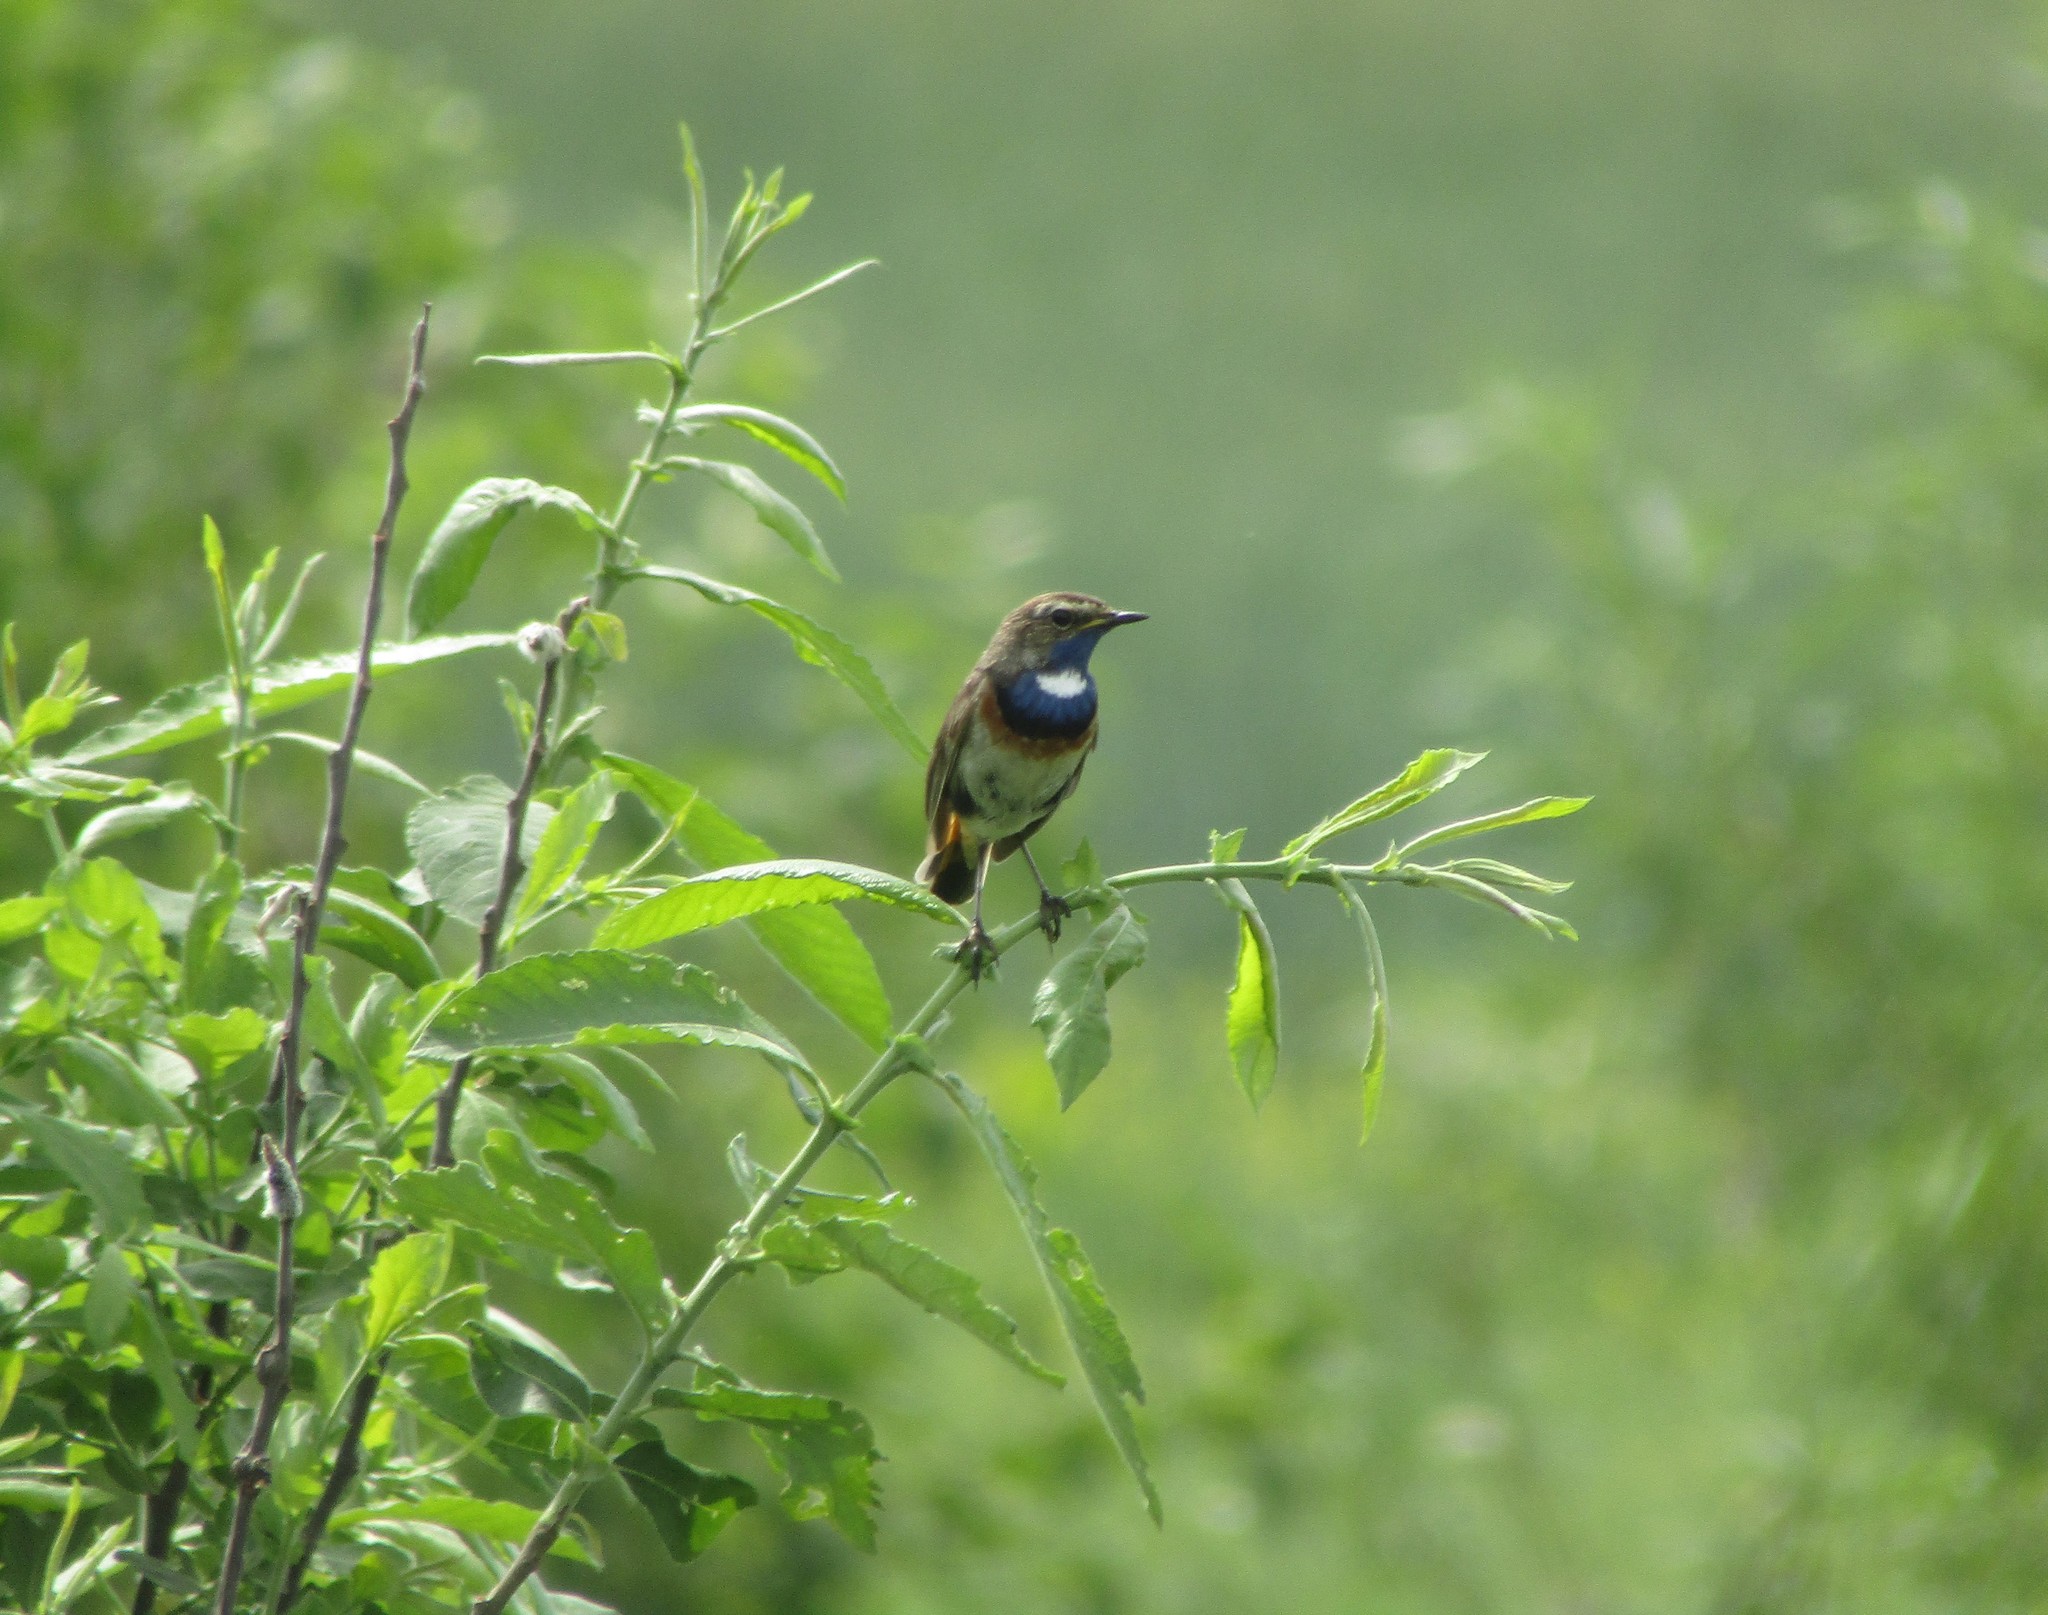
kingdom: Animalia
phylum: Chordata
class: Aves
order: Passeriformes
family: Muscicapidae
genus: Luscinia
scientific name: Luscinia svecica
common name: Bluethroat
